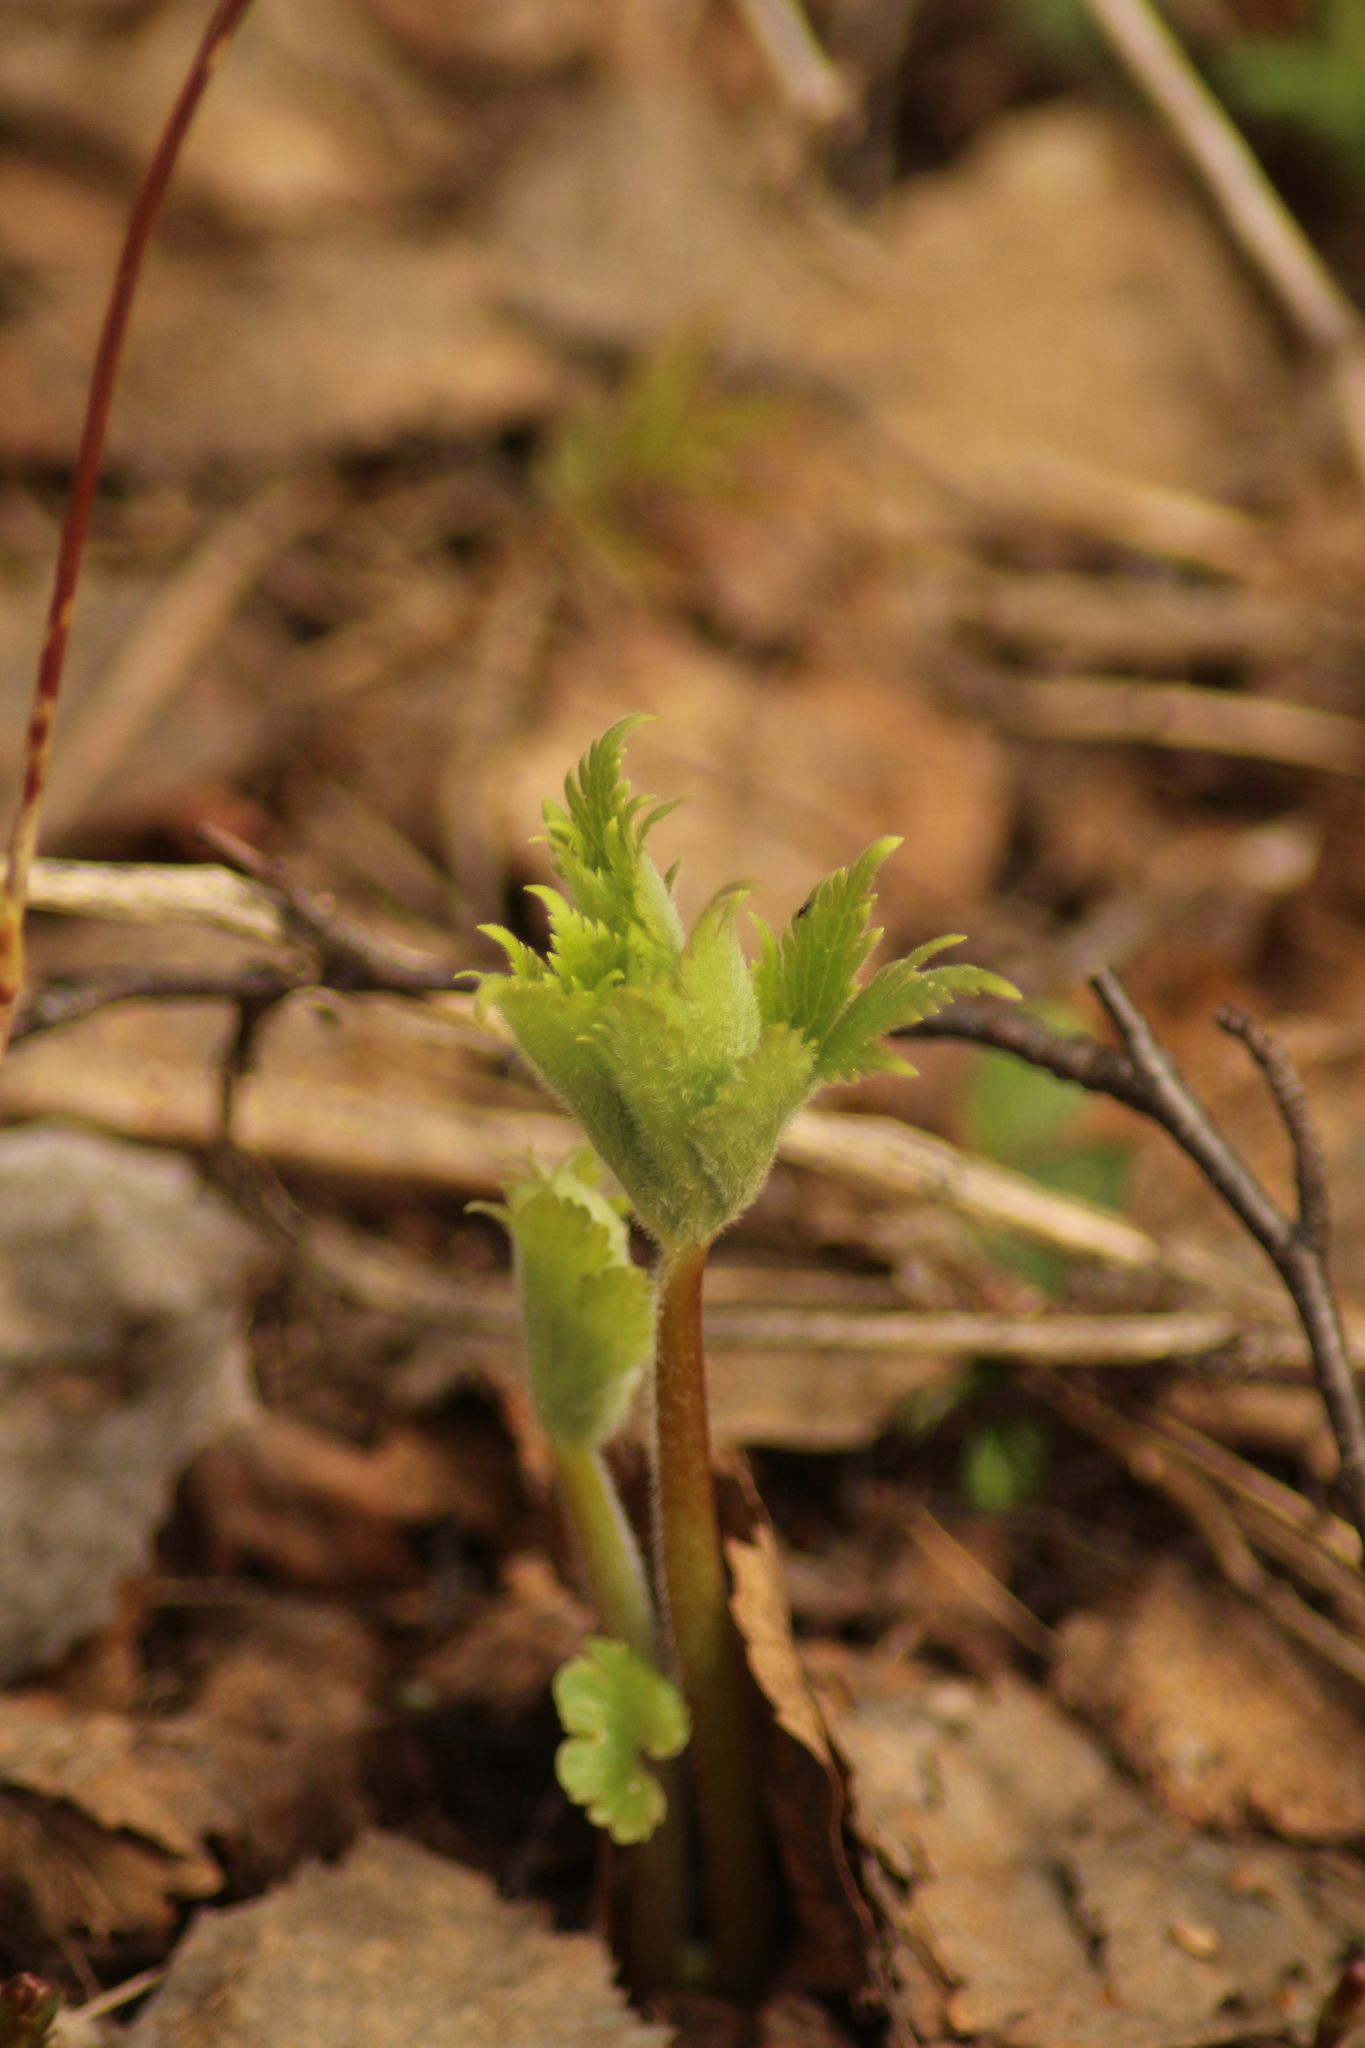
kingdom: Plantae
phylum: Tracheophyta
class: Magnoliopsida
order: Ranunculales
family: Ranunculaceae
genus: Aconitum
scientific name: Aconitum septentrionale
